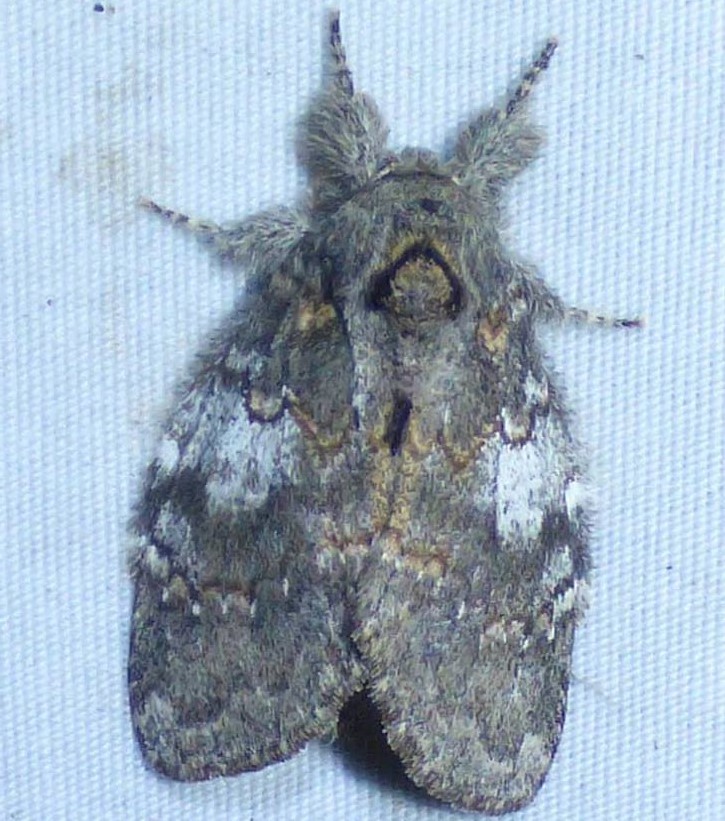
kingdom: Animalia
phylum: Arthropoda
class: Insecta
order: Lepidoptera
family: Notodontidae
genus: Peridea
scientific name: Peridea angulosa
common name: Angulose prominent
